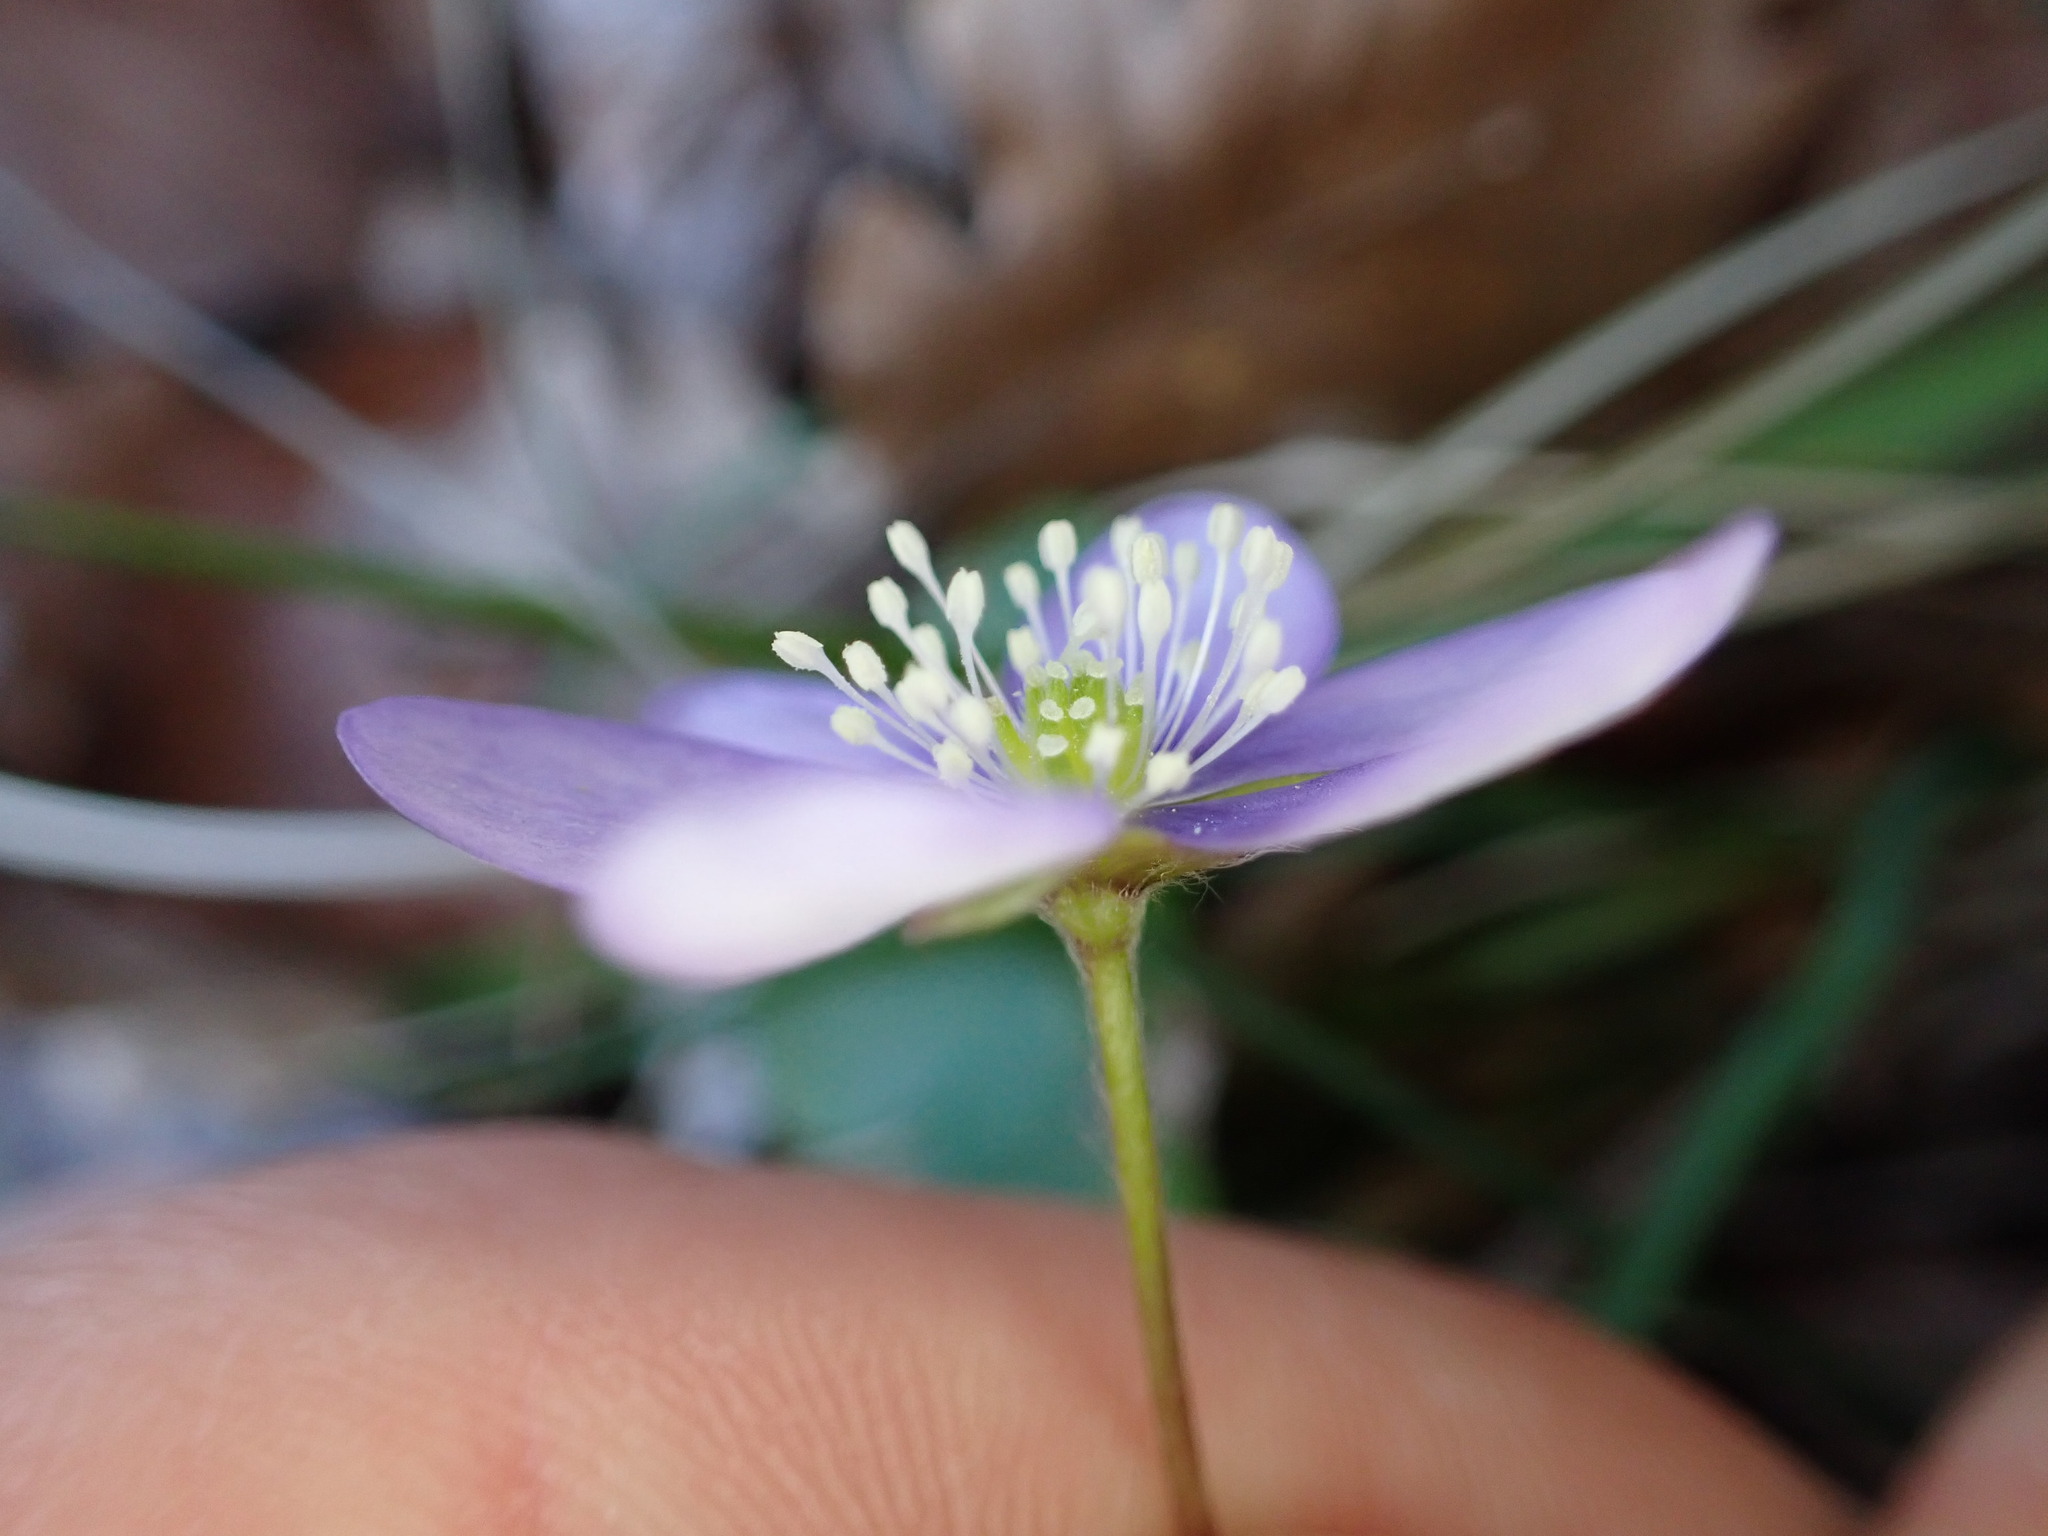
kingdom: Plantae
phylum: Tracheophyta
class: Magnoliopsida
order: Ranunculales
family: Ranunculaceae
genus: Hepatica
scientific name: Hepatica nobilis
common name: Liverleaf
